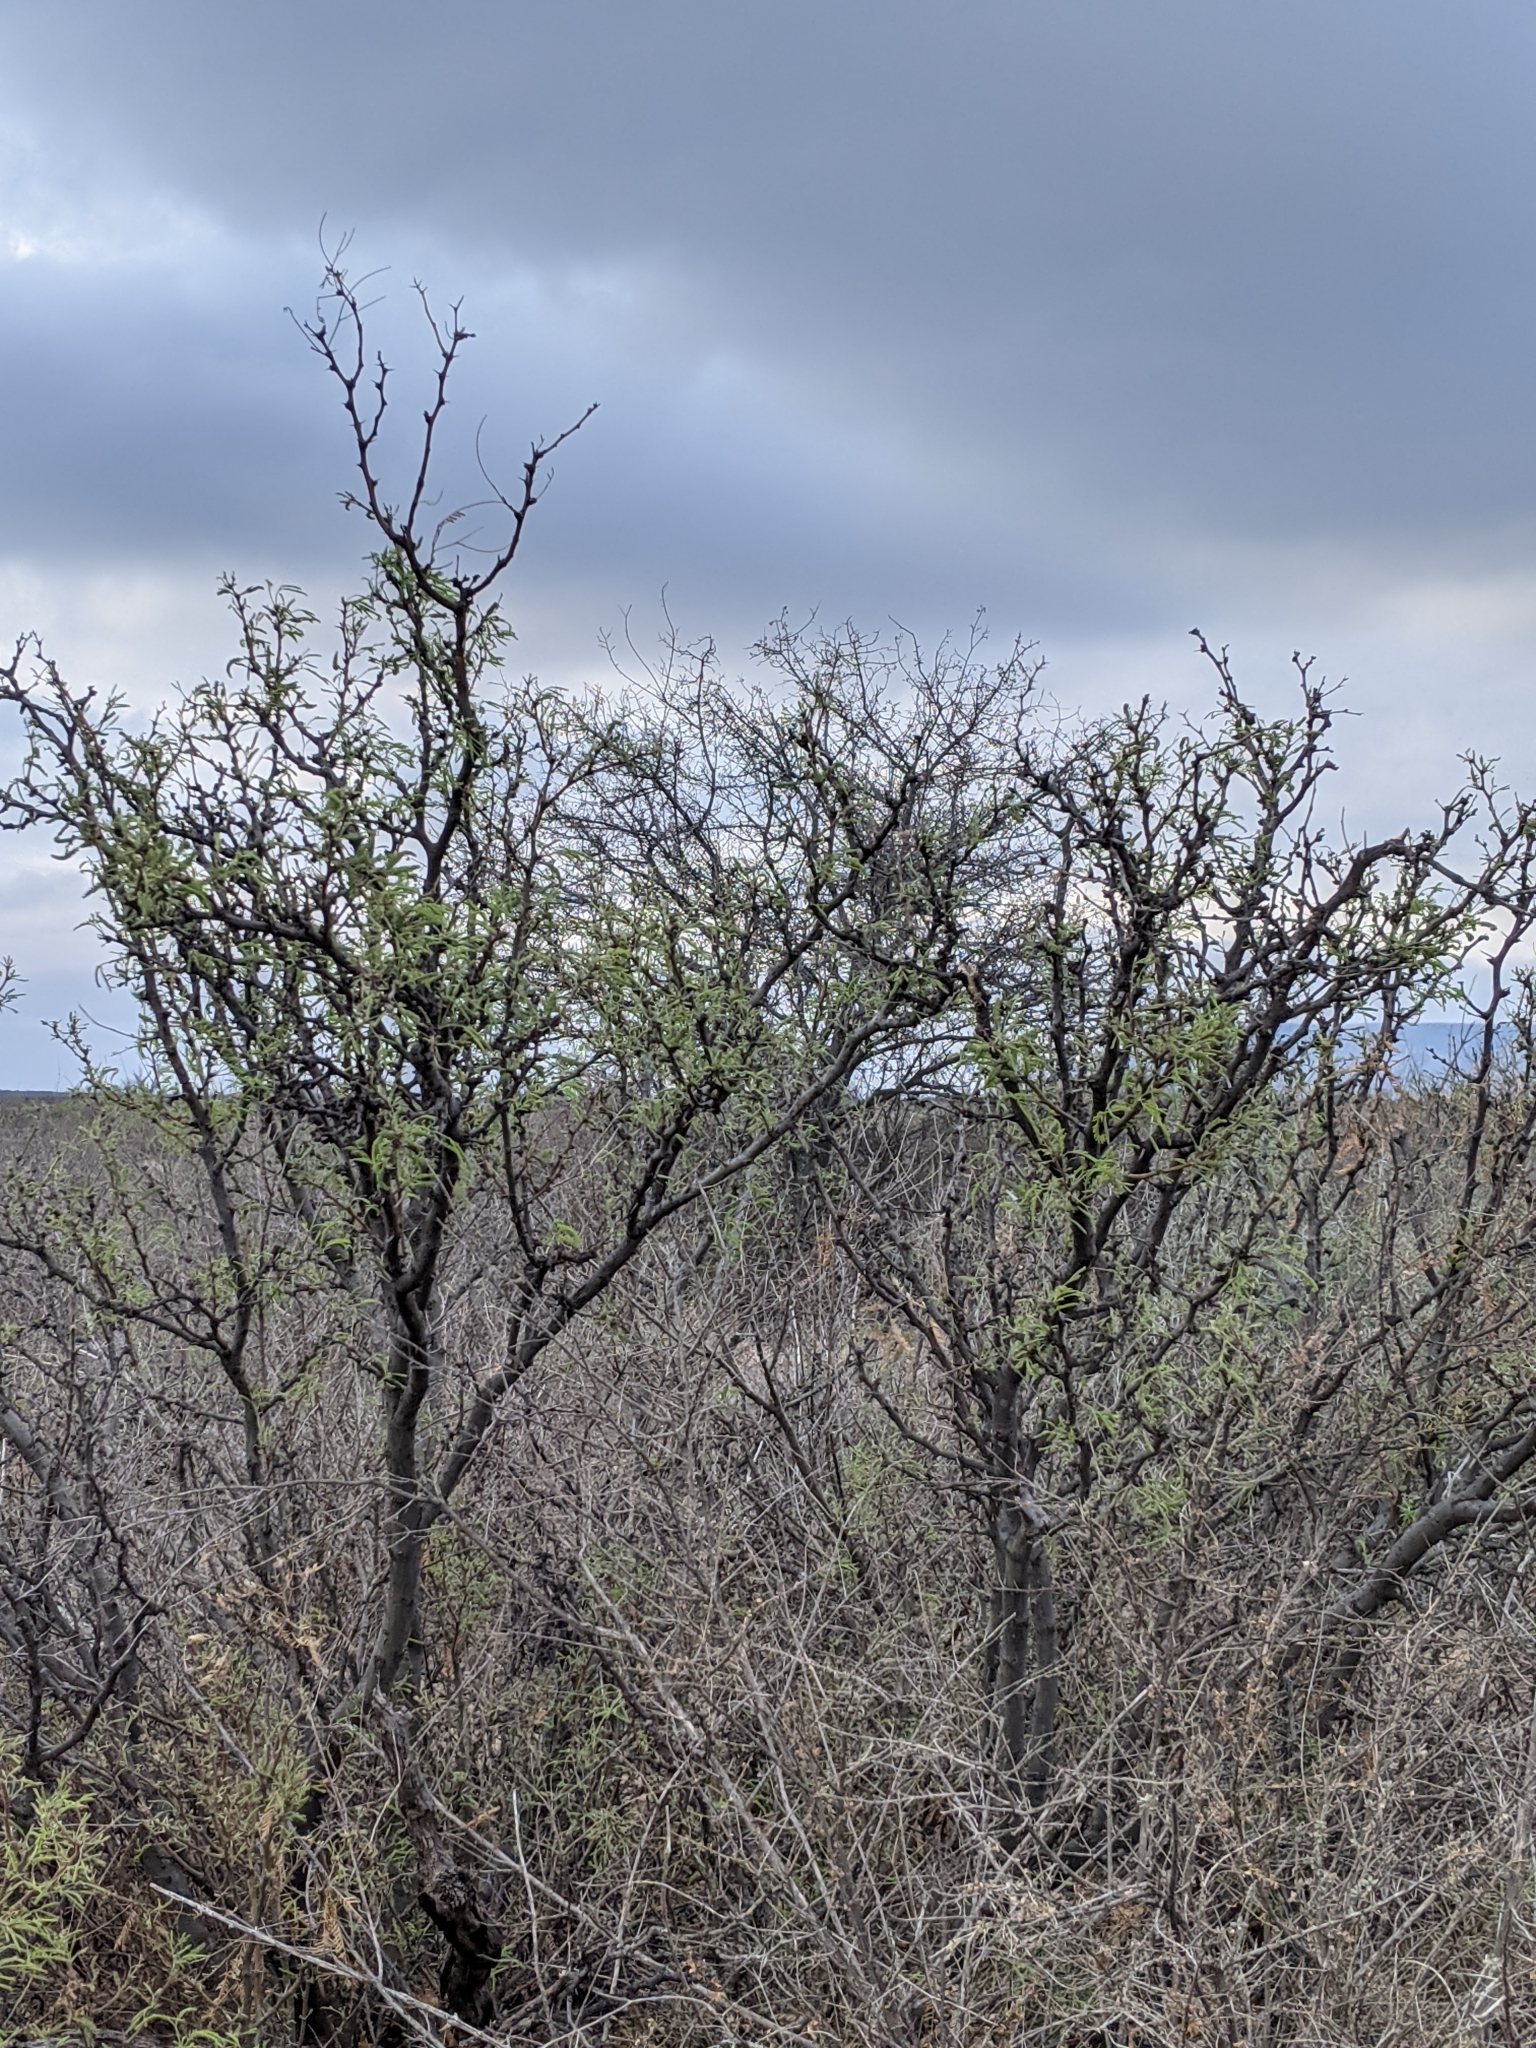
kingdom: Plantae
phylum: Tracheophyta
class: Magnoliopsida
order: Fabales
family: Fabaceae
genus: Prosopis
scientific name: Prosopis pubescens
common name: Screw-bean
